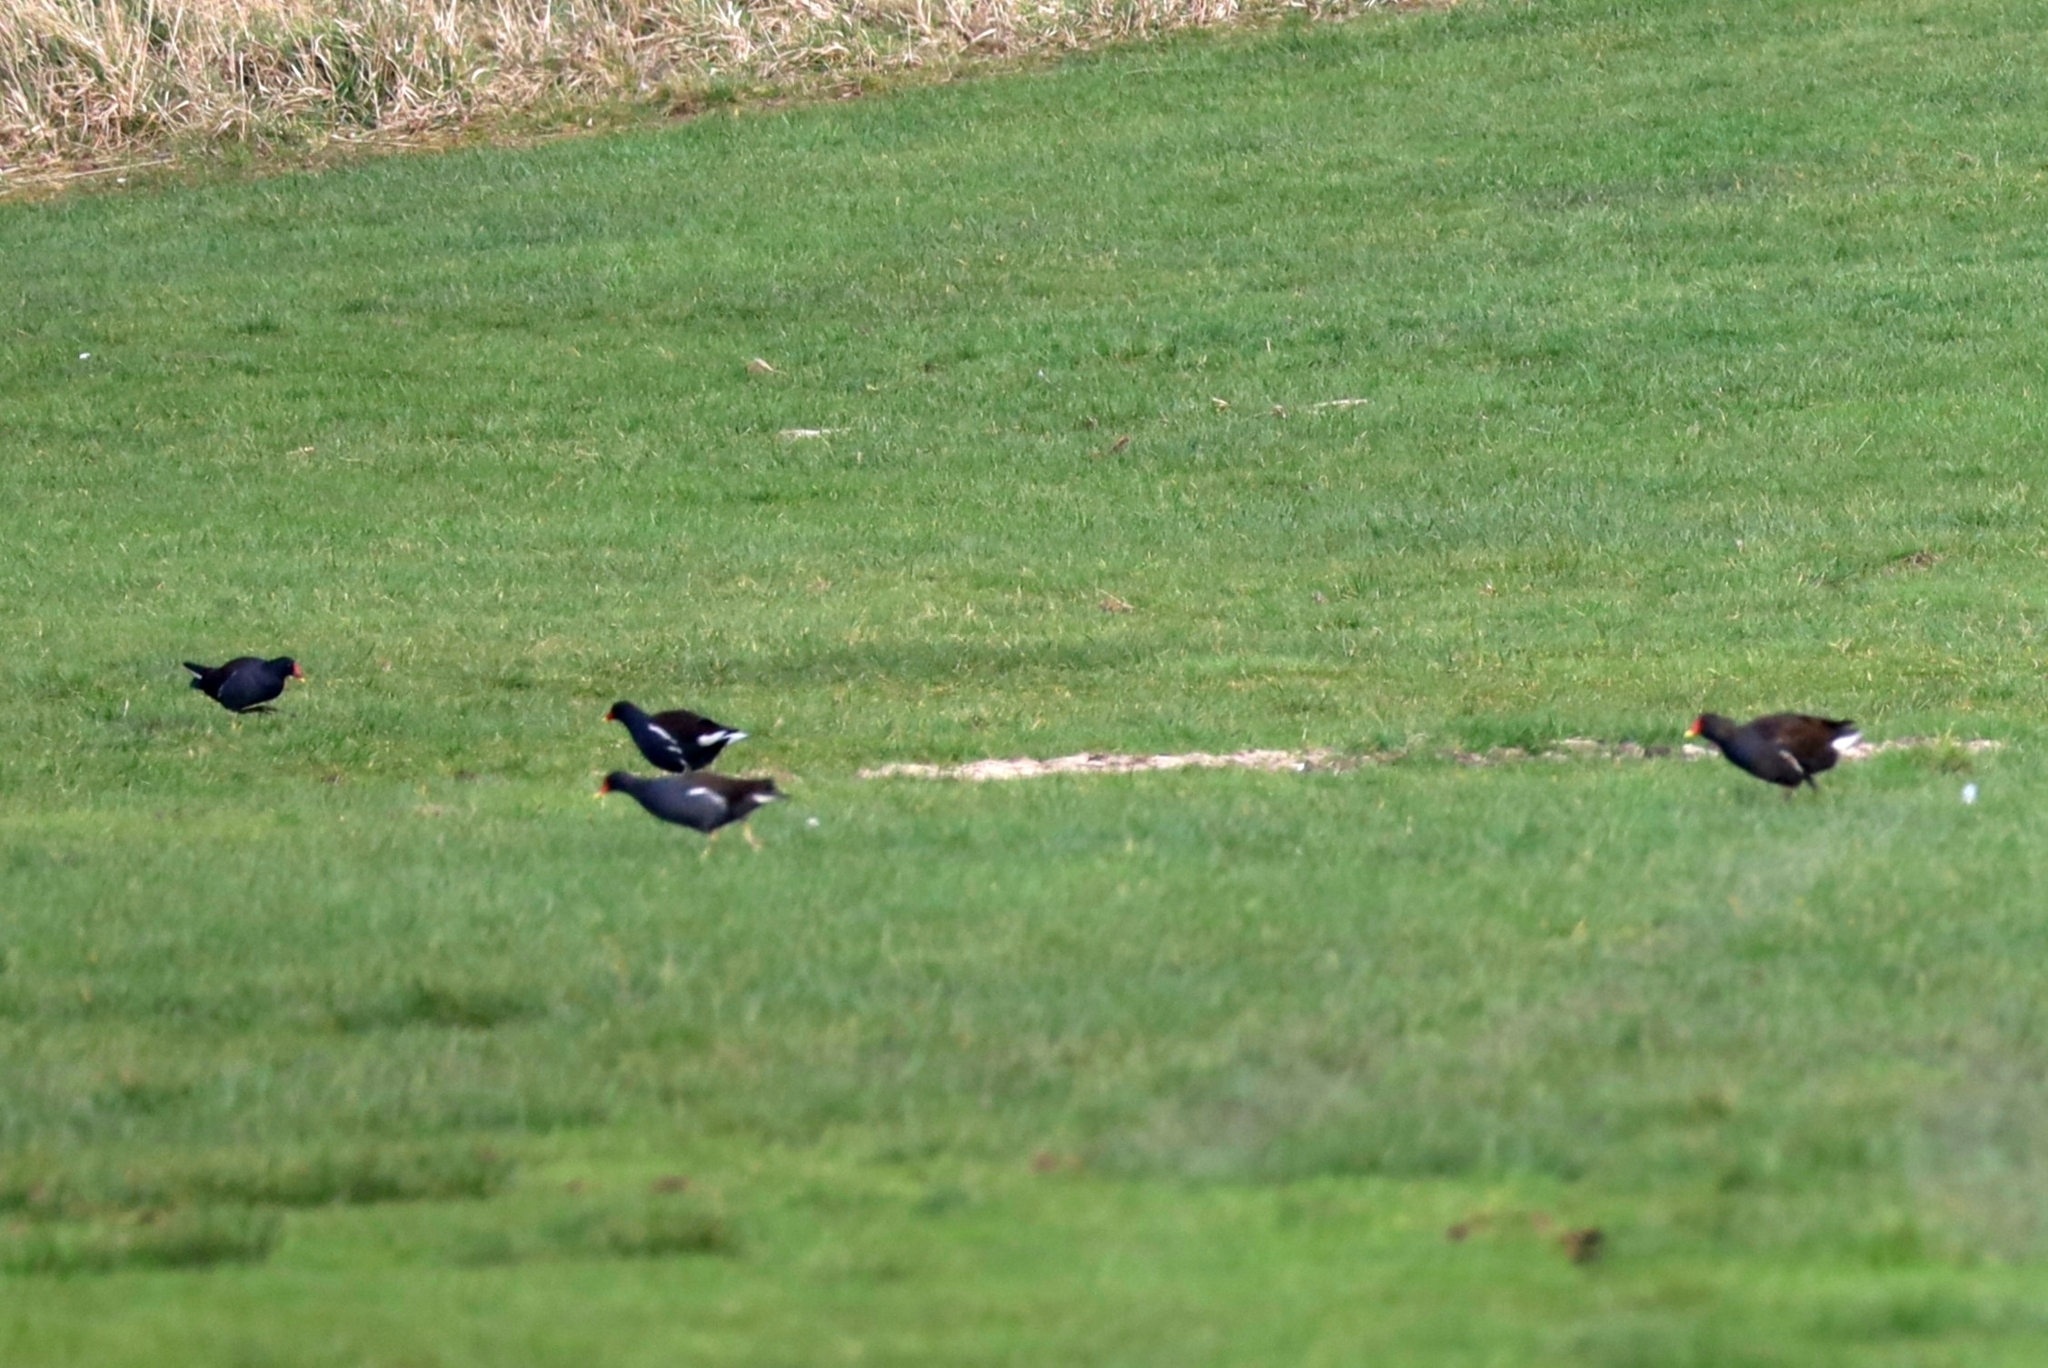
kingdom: Animalia
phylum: Chordata
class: Aves
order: Gruiformes
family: Rallidae
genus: Gallinula
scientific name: Gallinula chloropus
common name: Common moorhen
